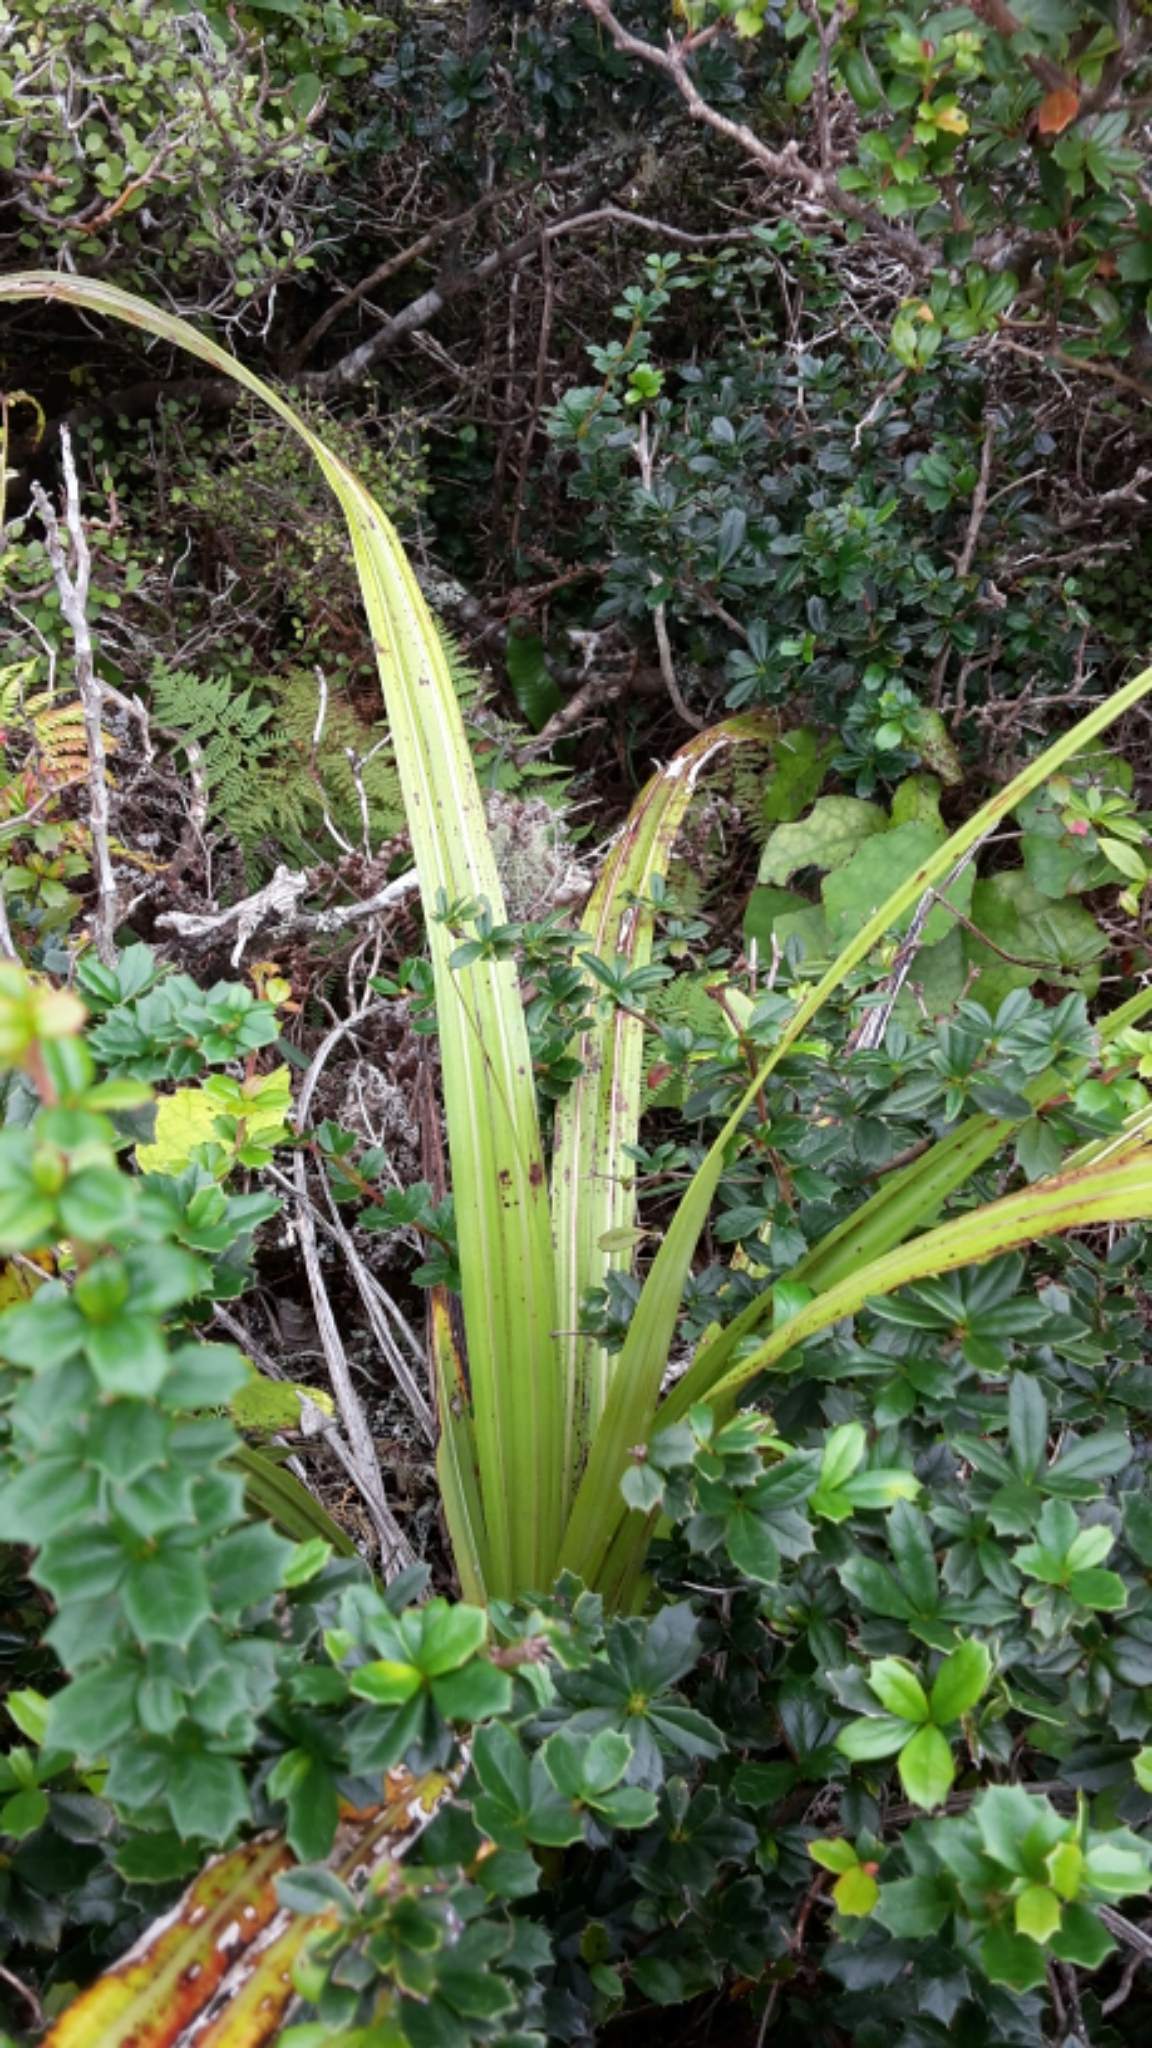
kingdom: Plantae
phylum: Tracheophyta
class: Liliopsida
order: Asparagales
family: Asteliaceae
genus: Astelia
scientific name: Astelia fragrans
